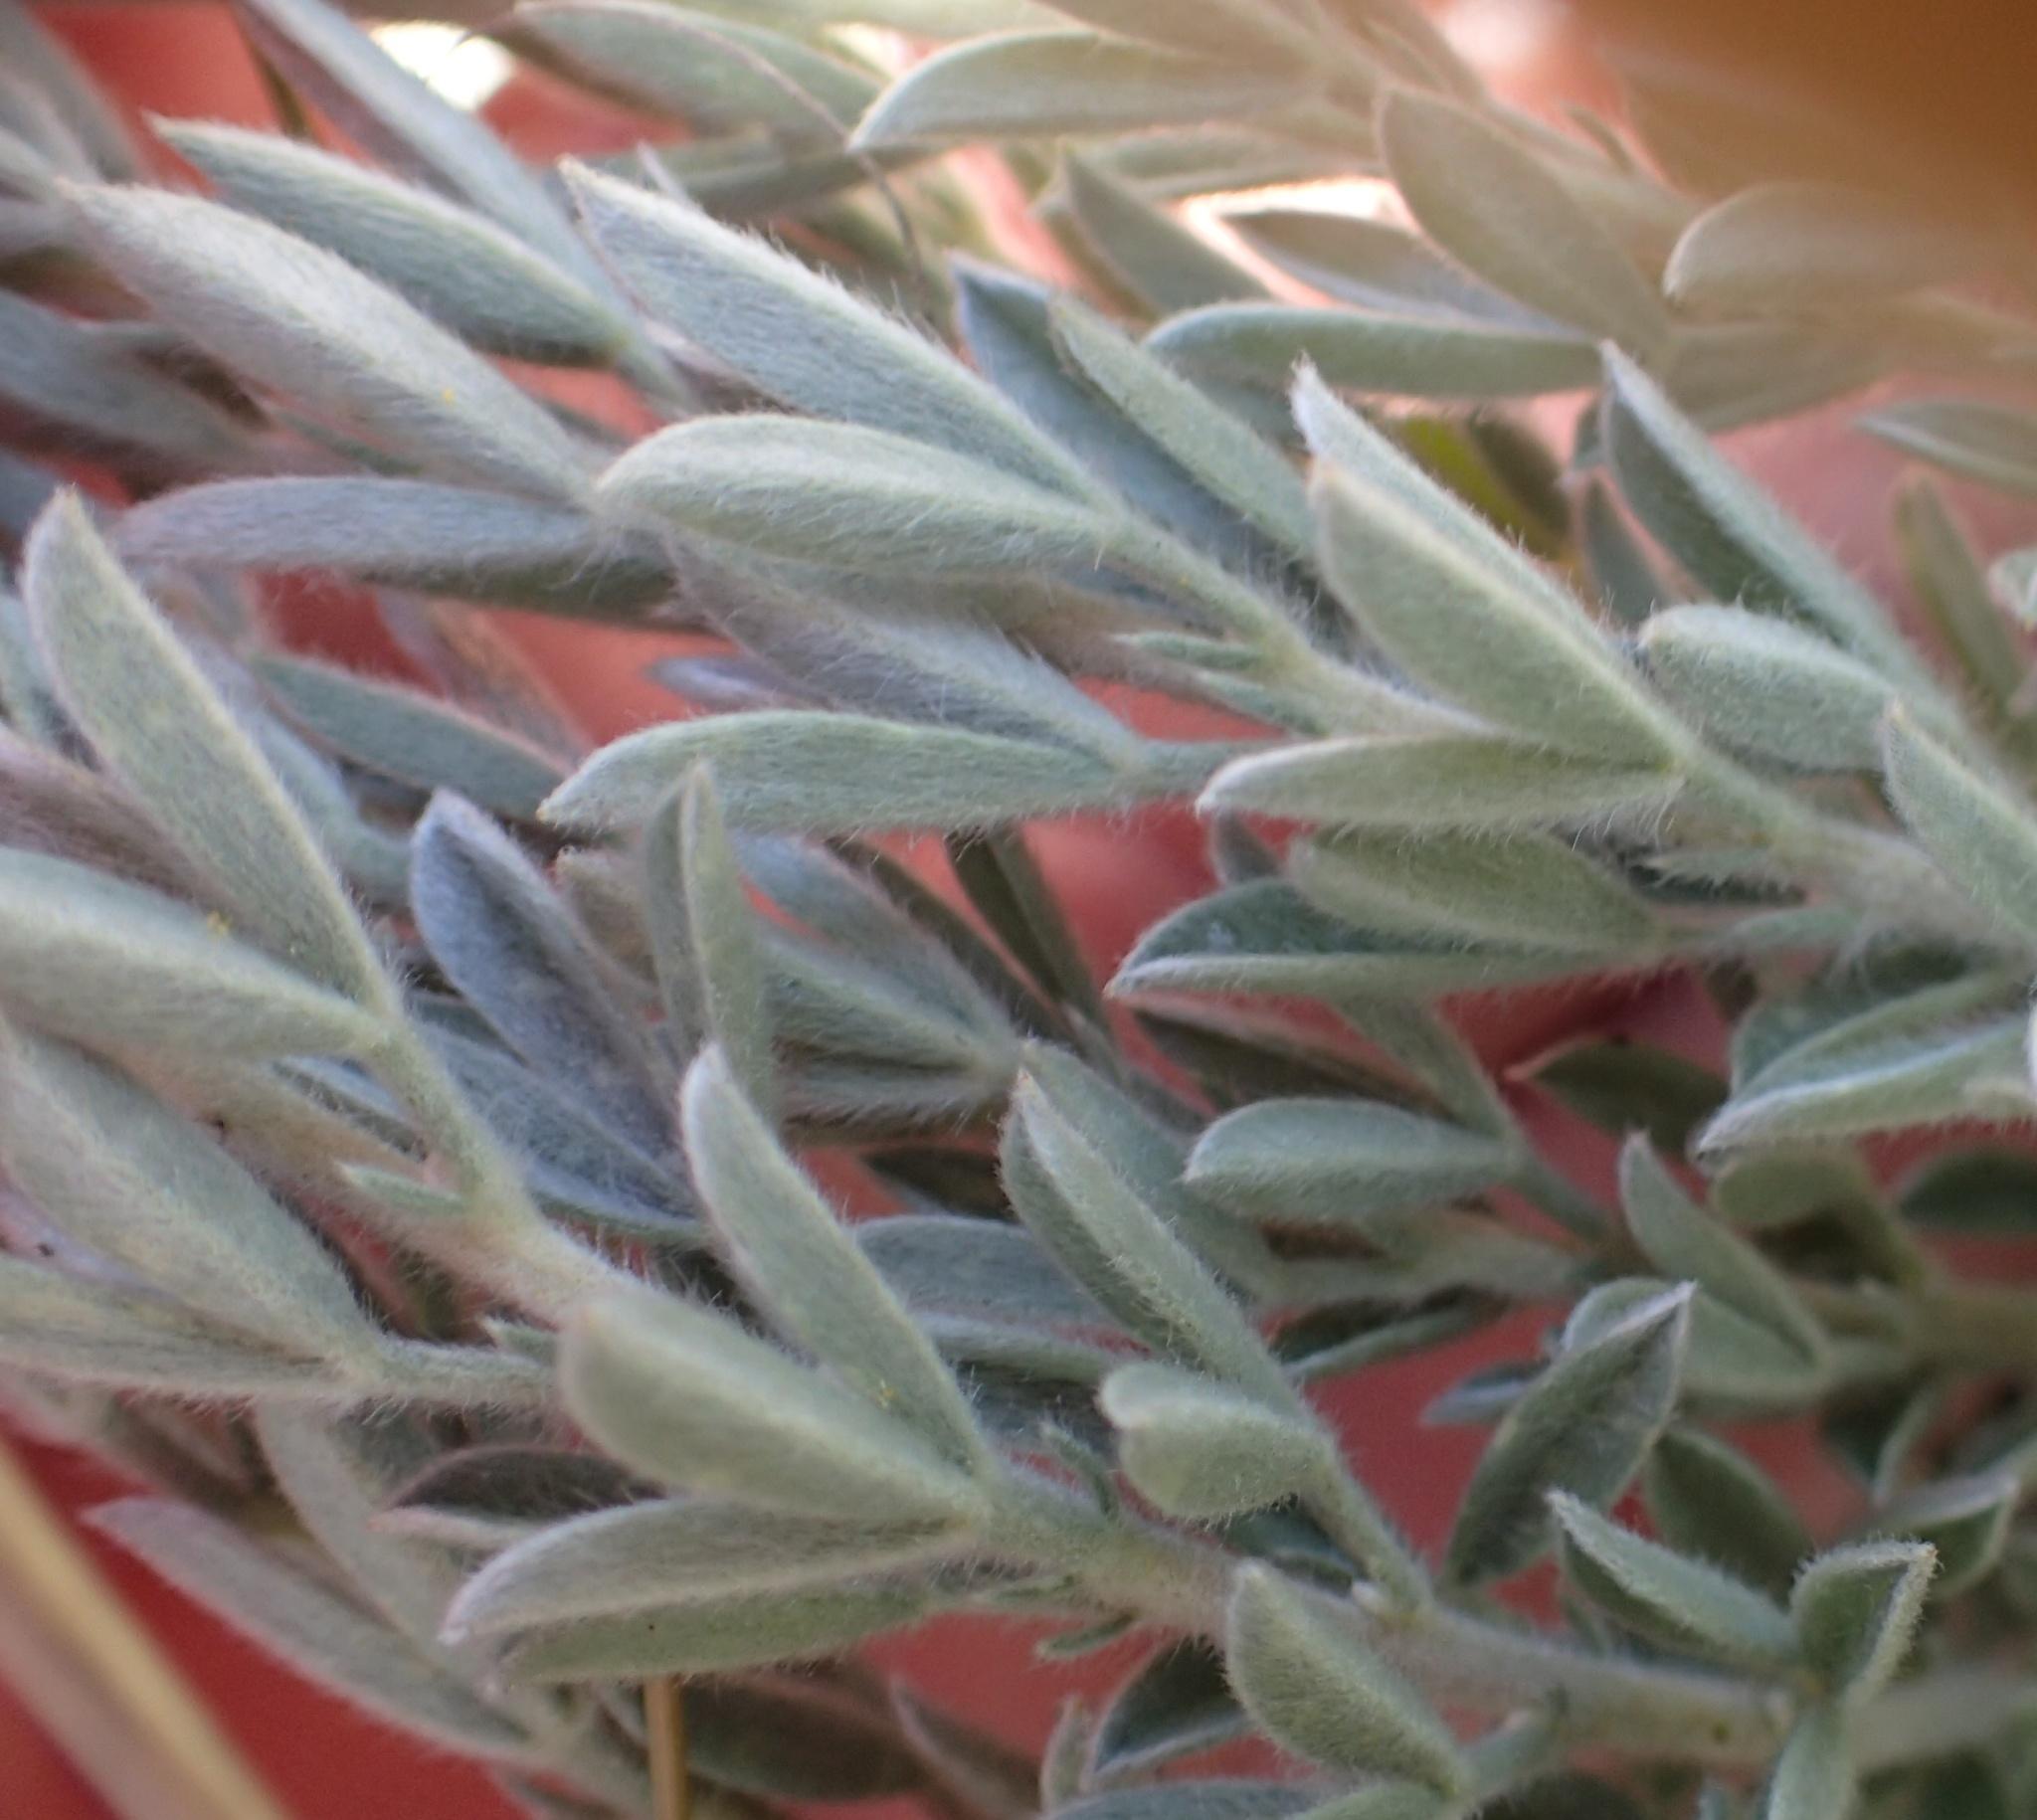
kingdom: Plantae
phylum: Tracheophyta
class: Magnoliopsida
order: Fabales
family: Fabaceae
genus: Lotononis
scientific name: Lotononis viminea
